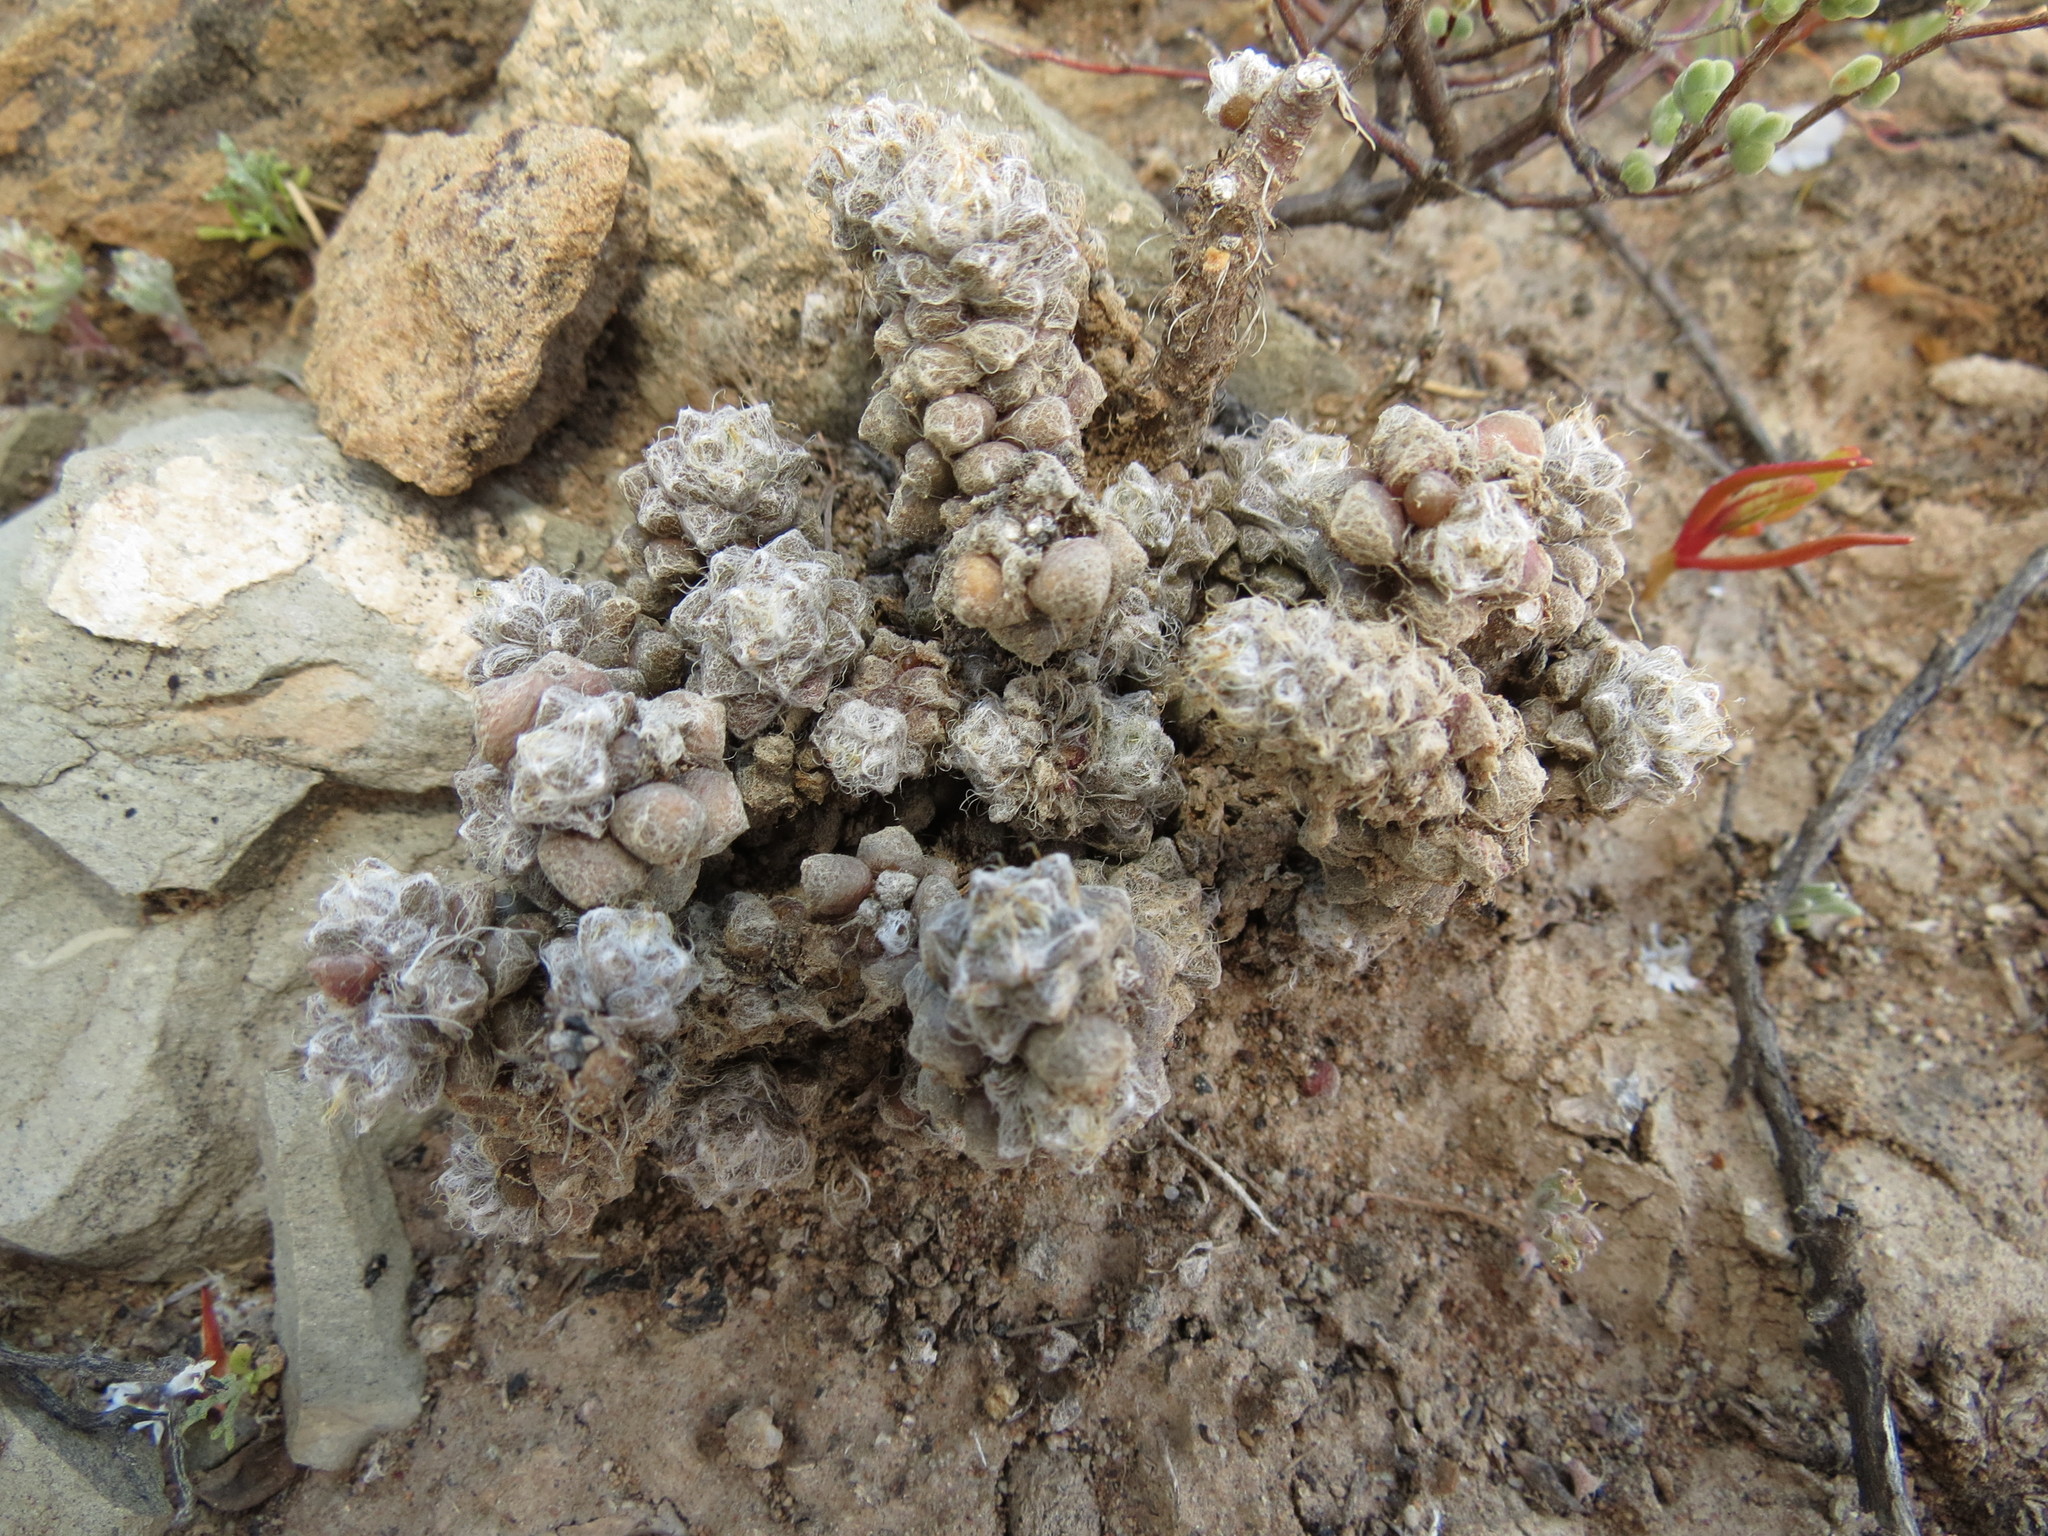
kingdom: Plantae
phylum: Tracheophyta
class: Magnoliopsida
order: Caryophyllales
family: Anacampserotaceae
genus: Anacampseros
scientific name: Anacampseros filamentosa
